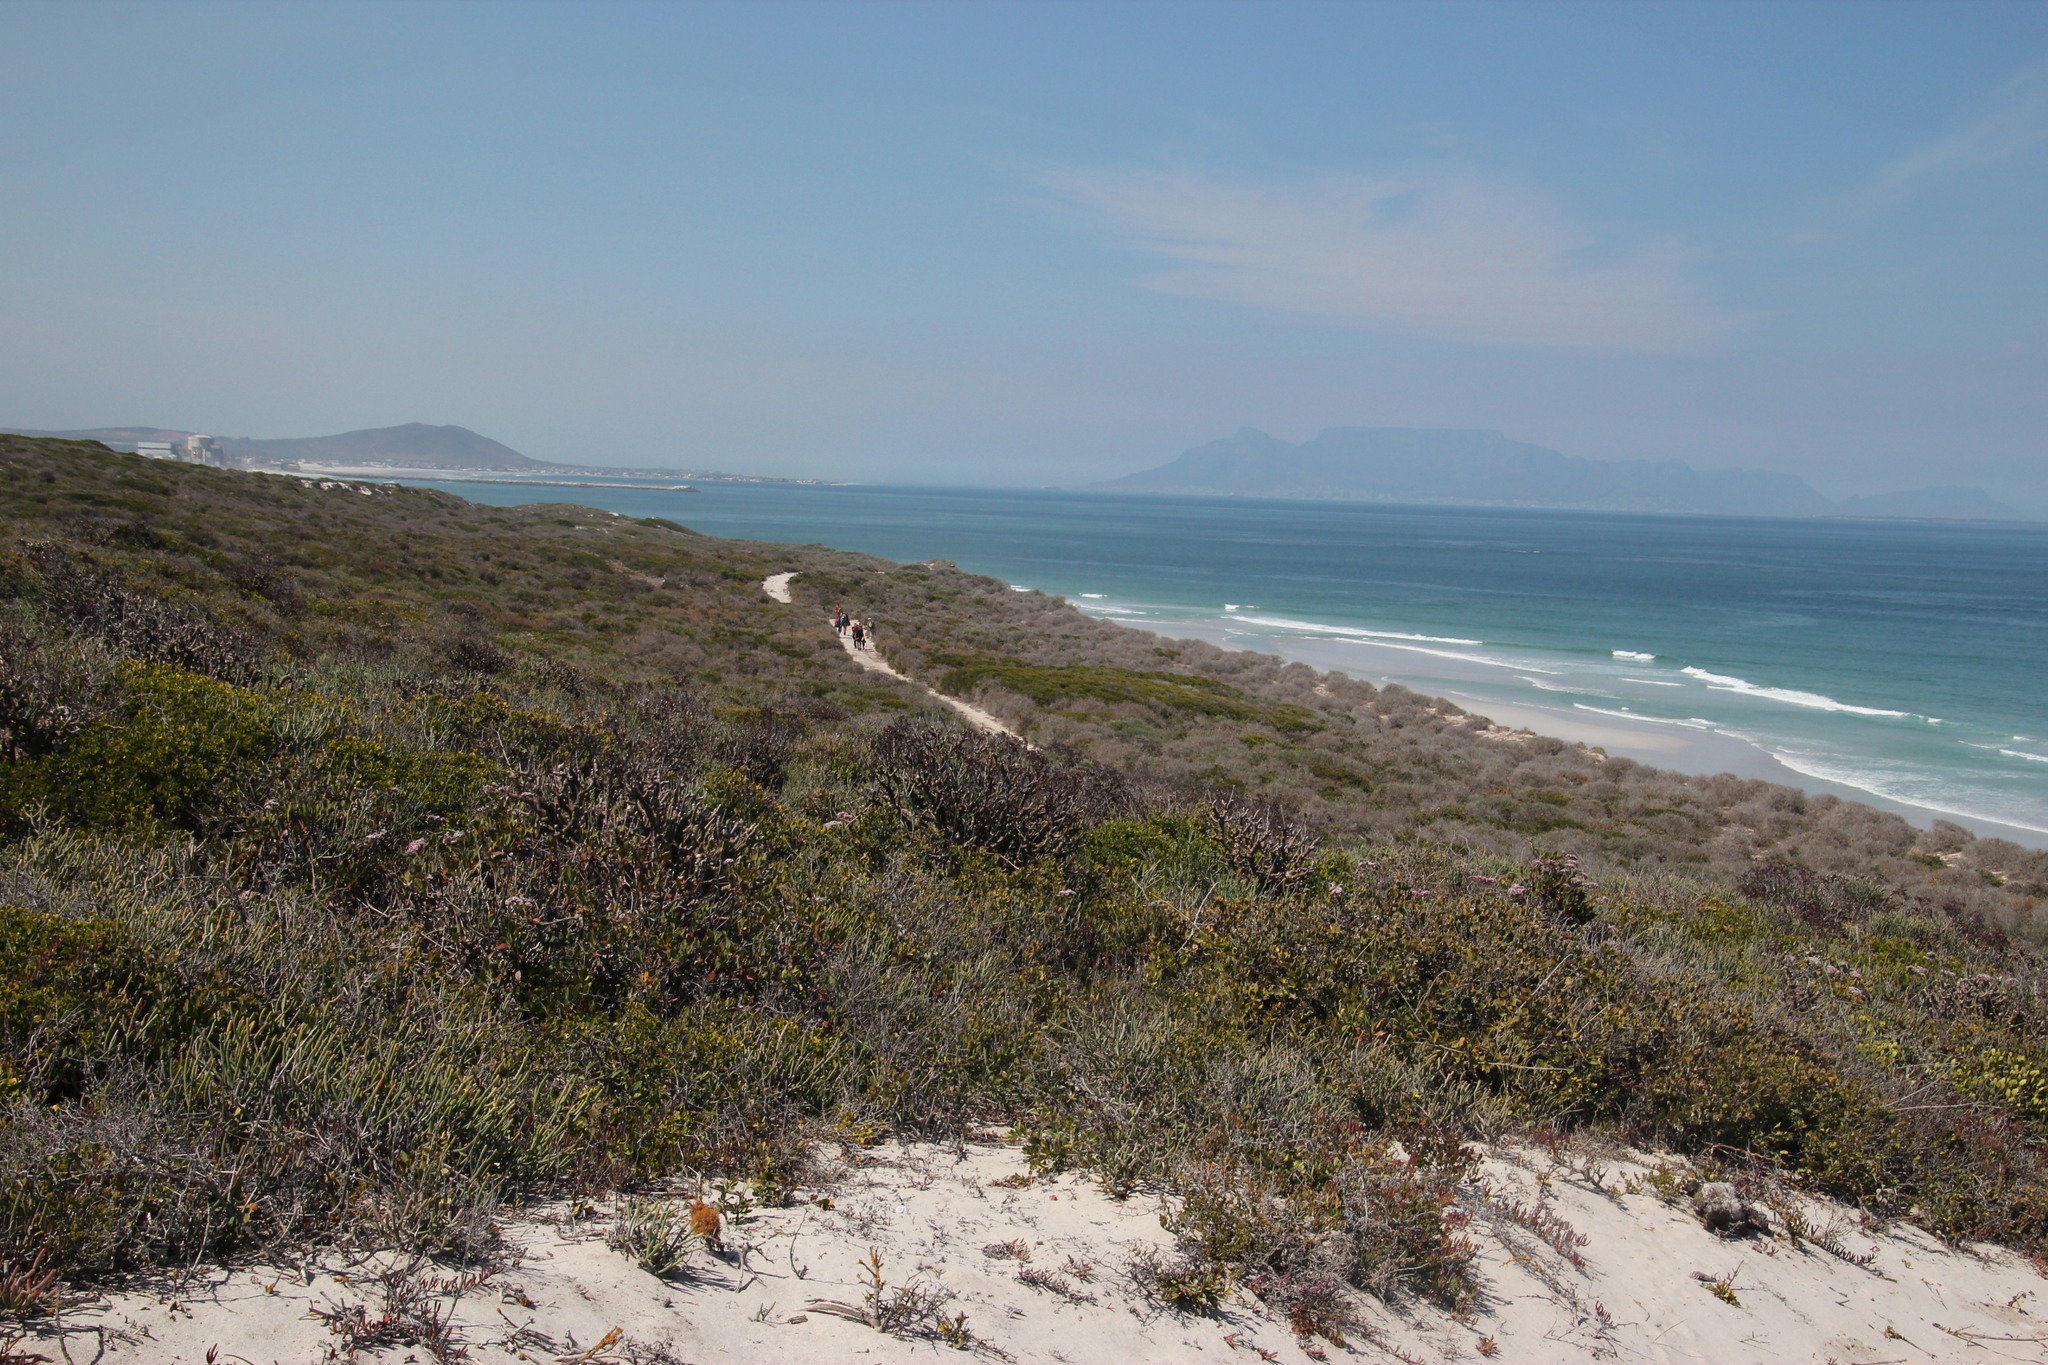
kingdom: Plantae
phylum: Tracheophyta
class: Magnoliopsida
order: Saxifragales
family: Crassulaceae
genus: Tylecodon
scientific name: Tylecodon paniculatus
